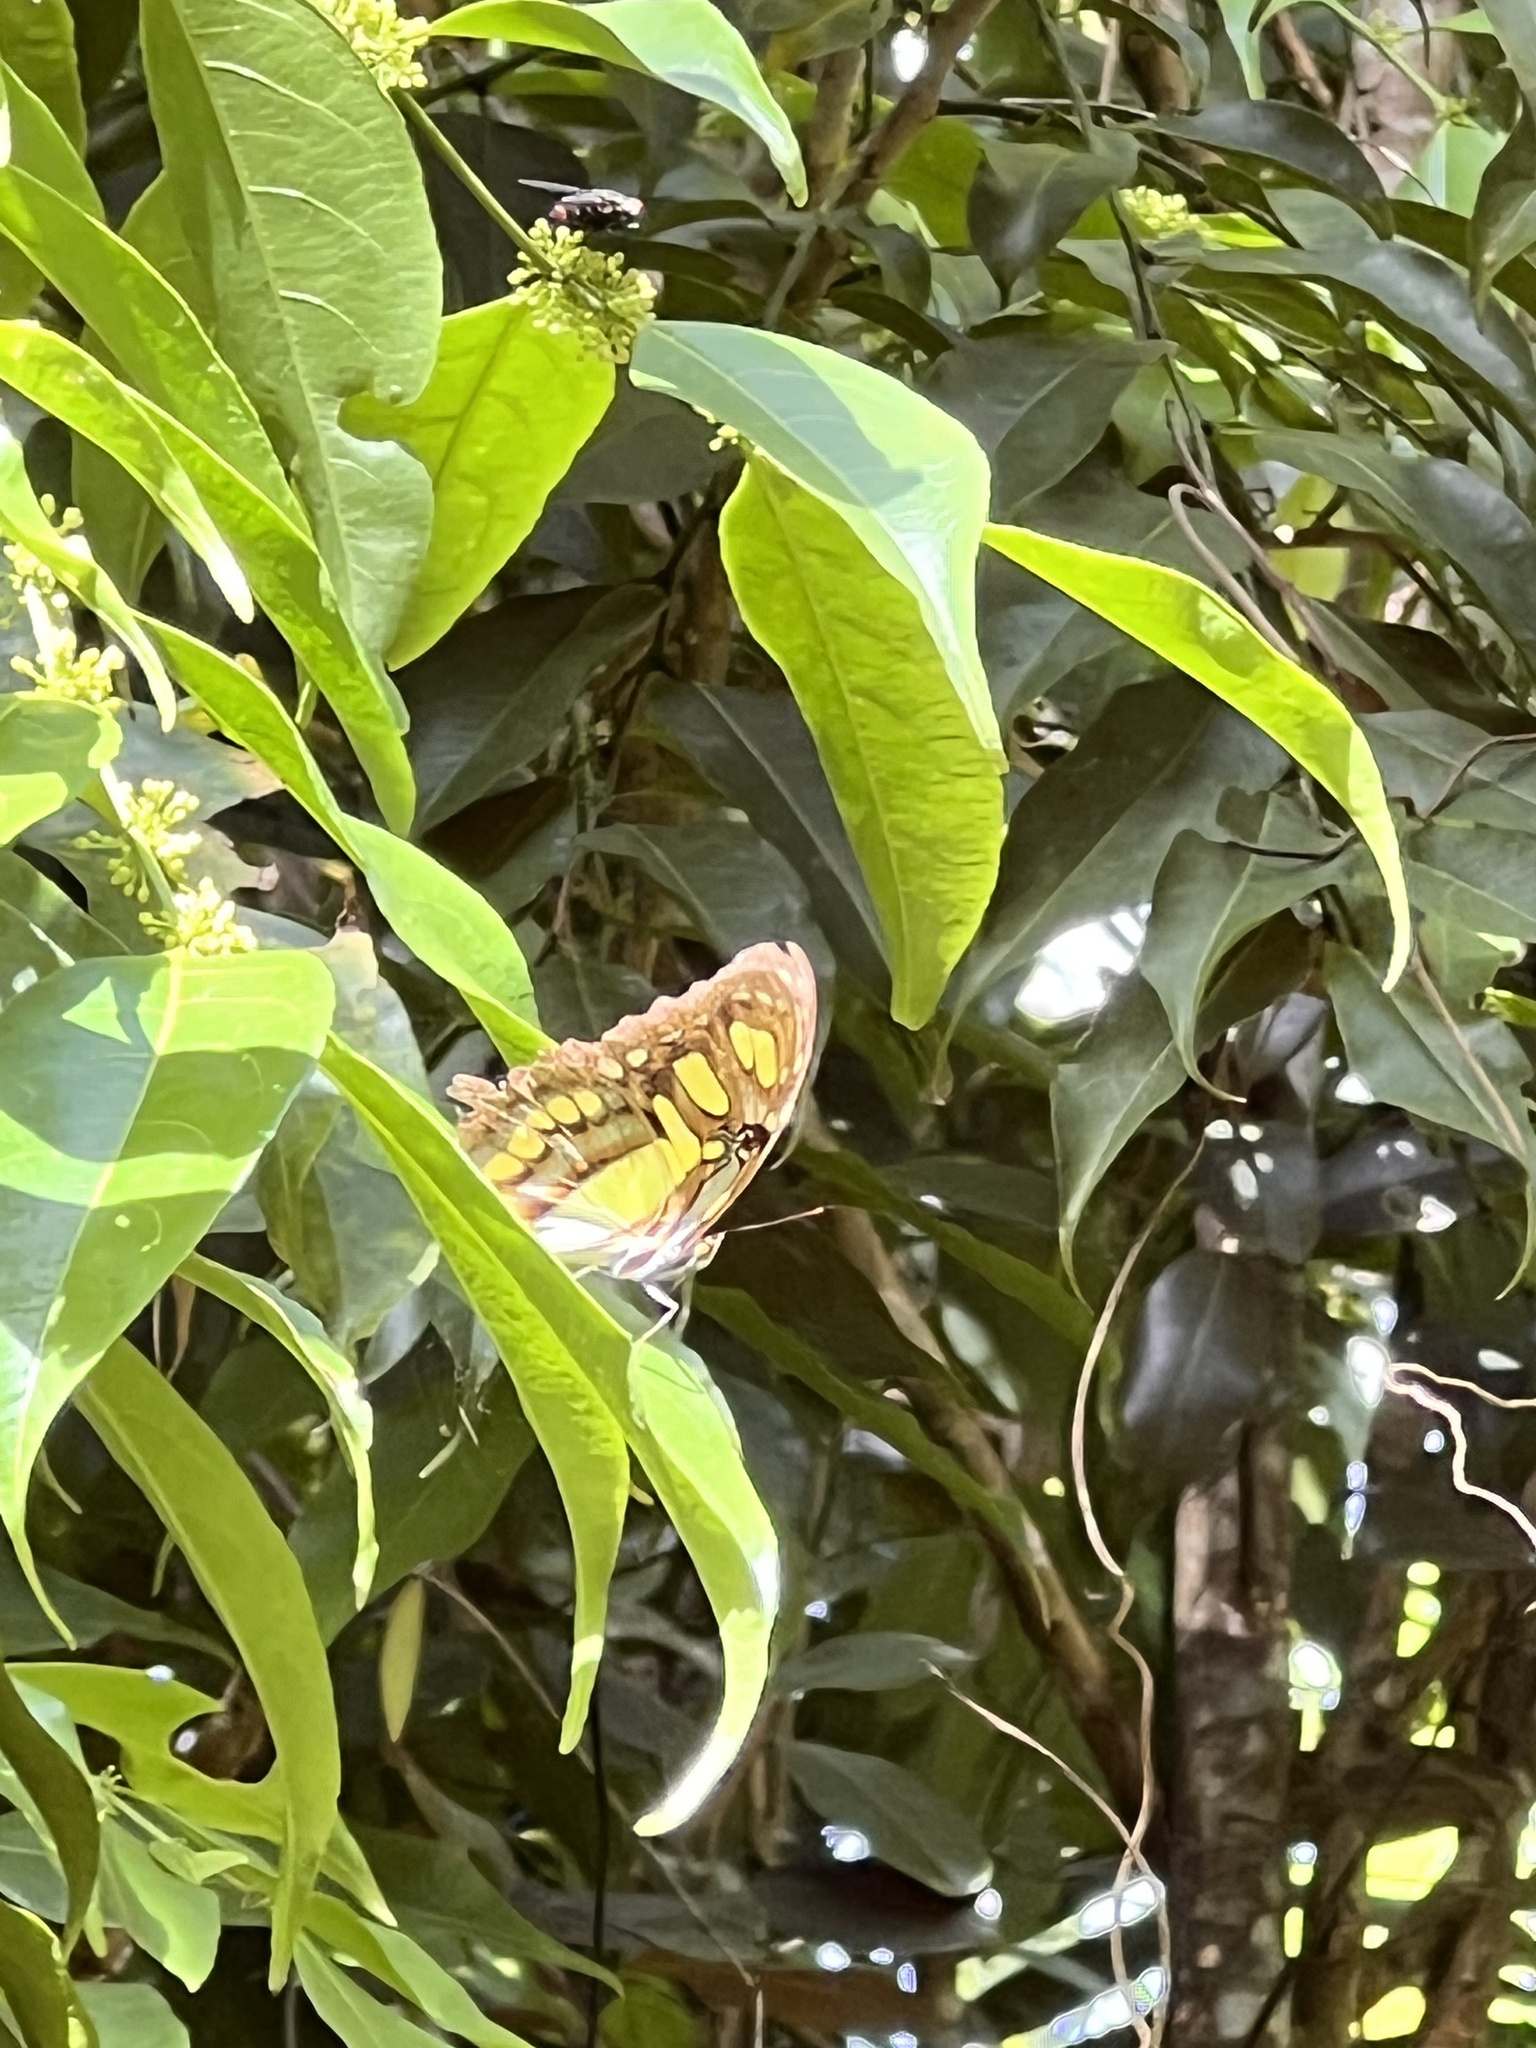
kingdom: Animalia
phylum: Arthropoda
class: Insecta
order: Lepidoptera
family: Nymphalidae
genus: Siproeta
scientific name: Siproeta stelenes
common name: Malachite
